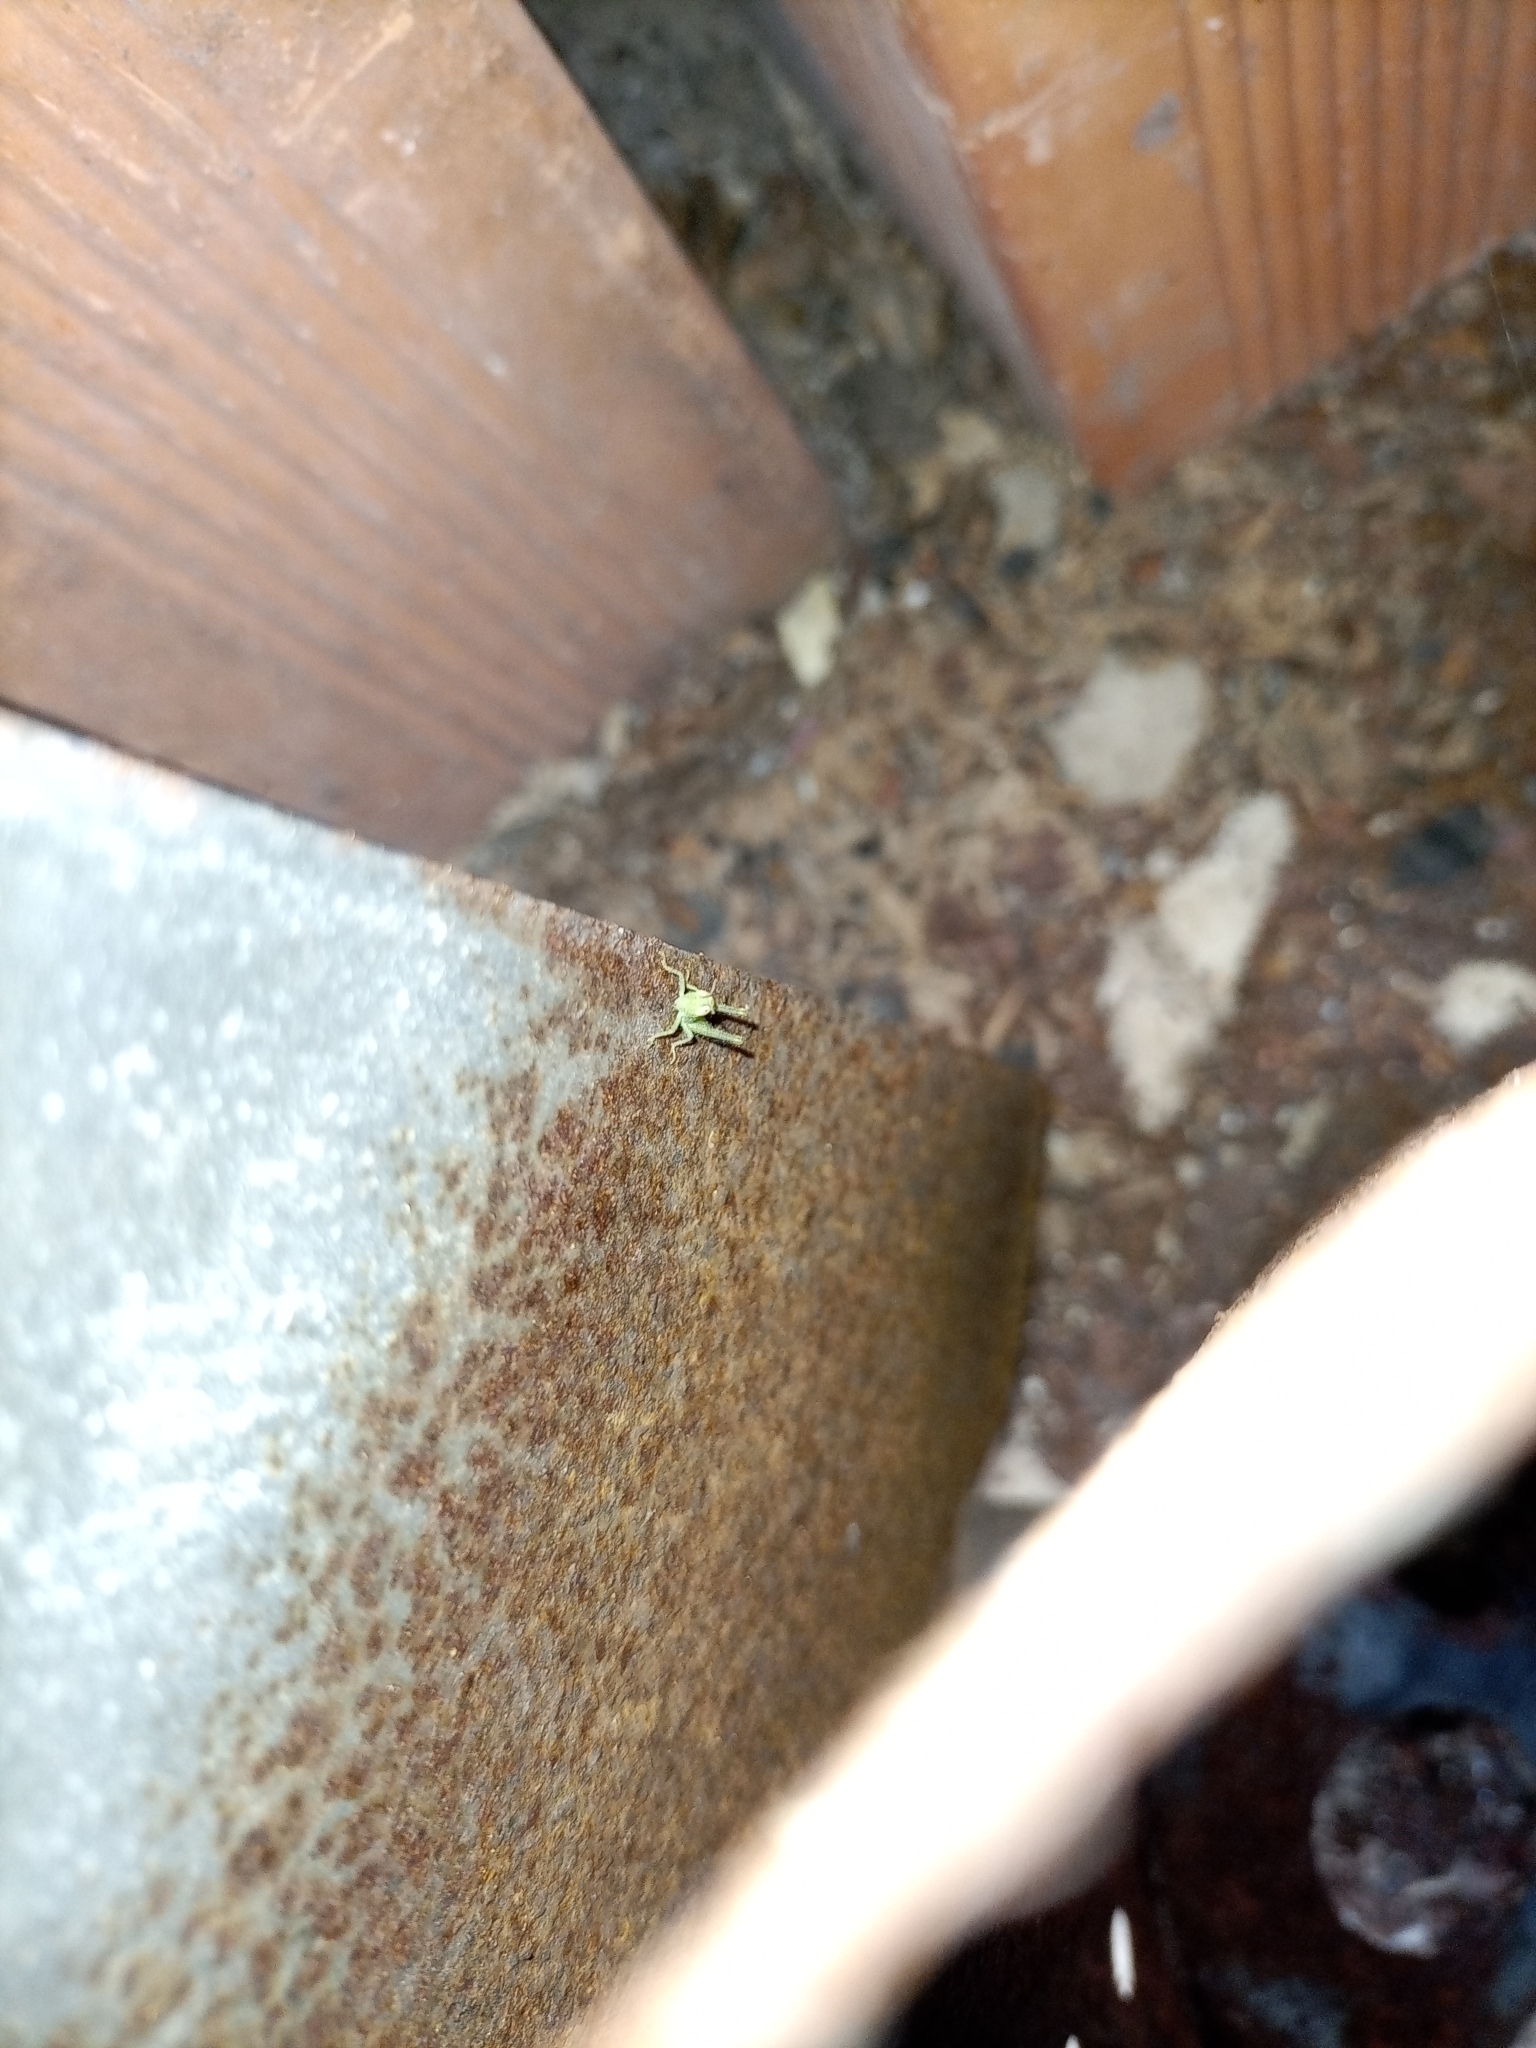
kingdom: Animalia
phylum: Arthropoda
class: Insecta
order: Orthoptera
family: Acrididae
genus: Anacridium
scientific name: Anacridium aegyptium
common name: Egyptian grasshopper
